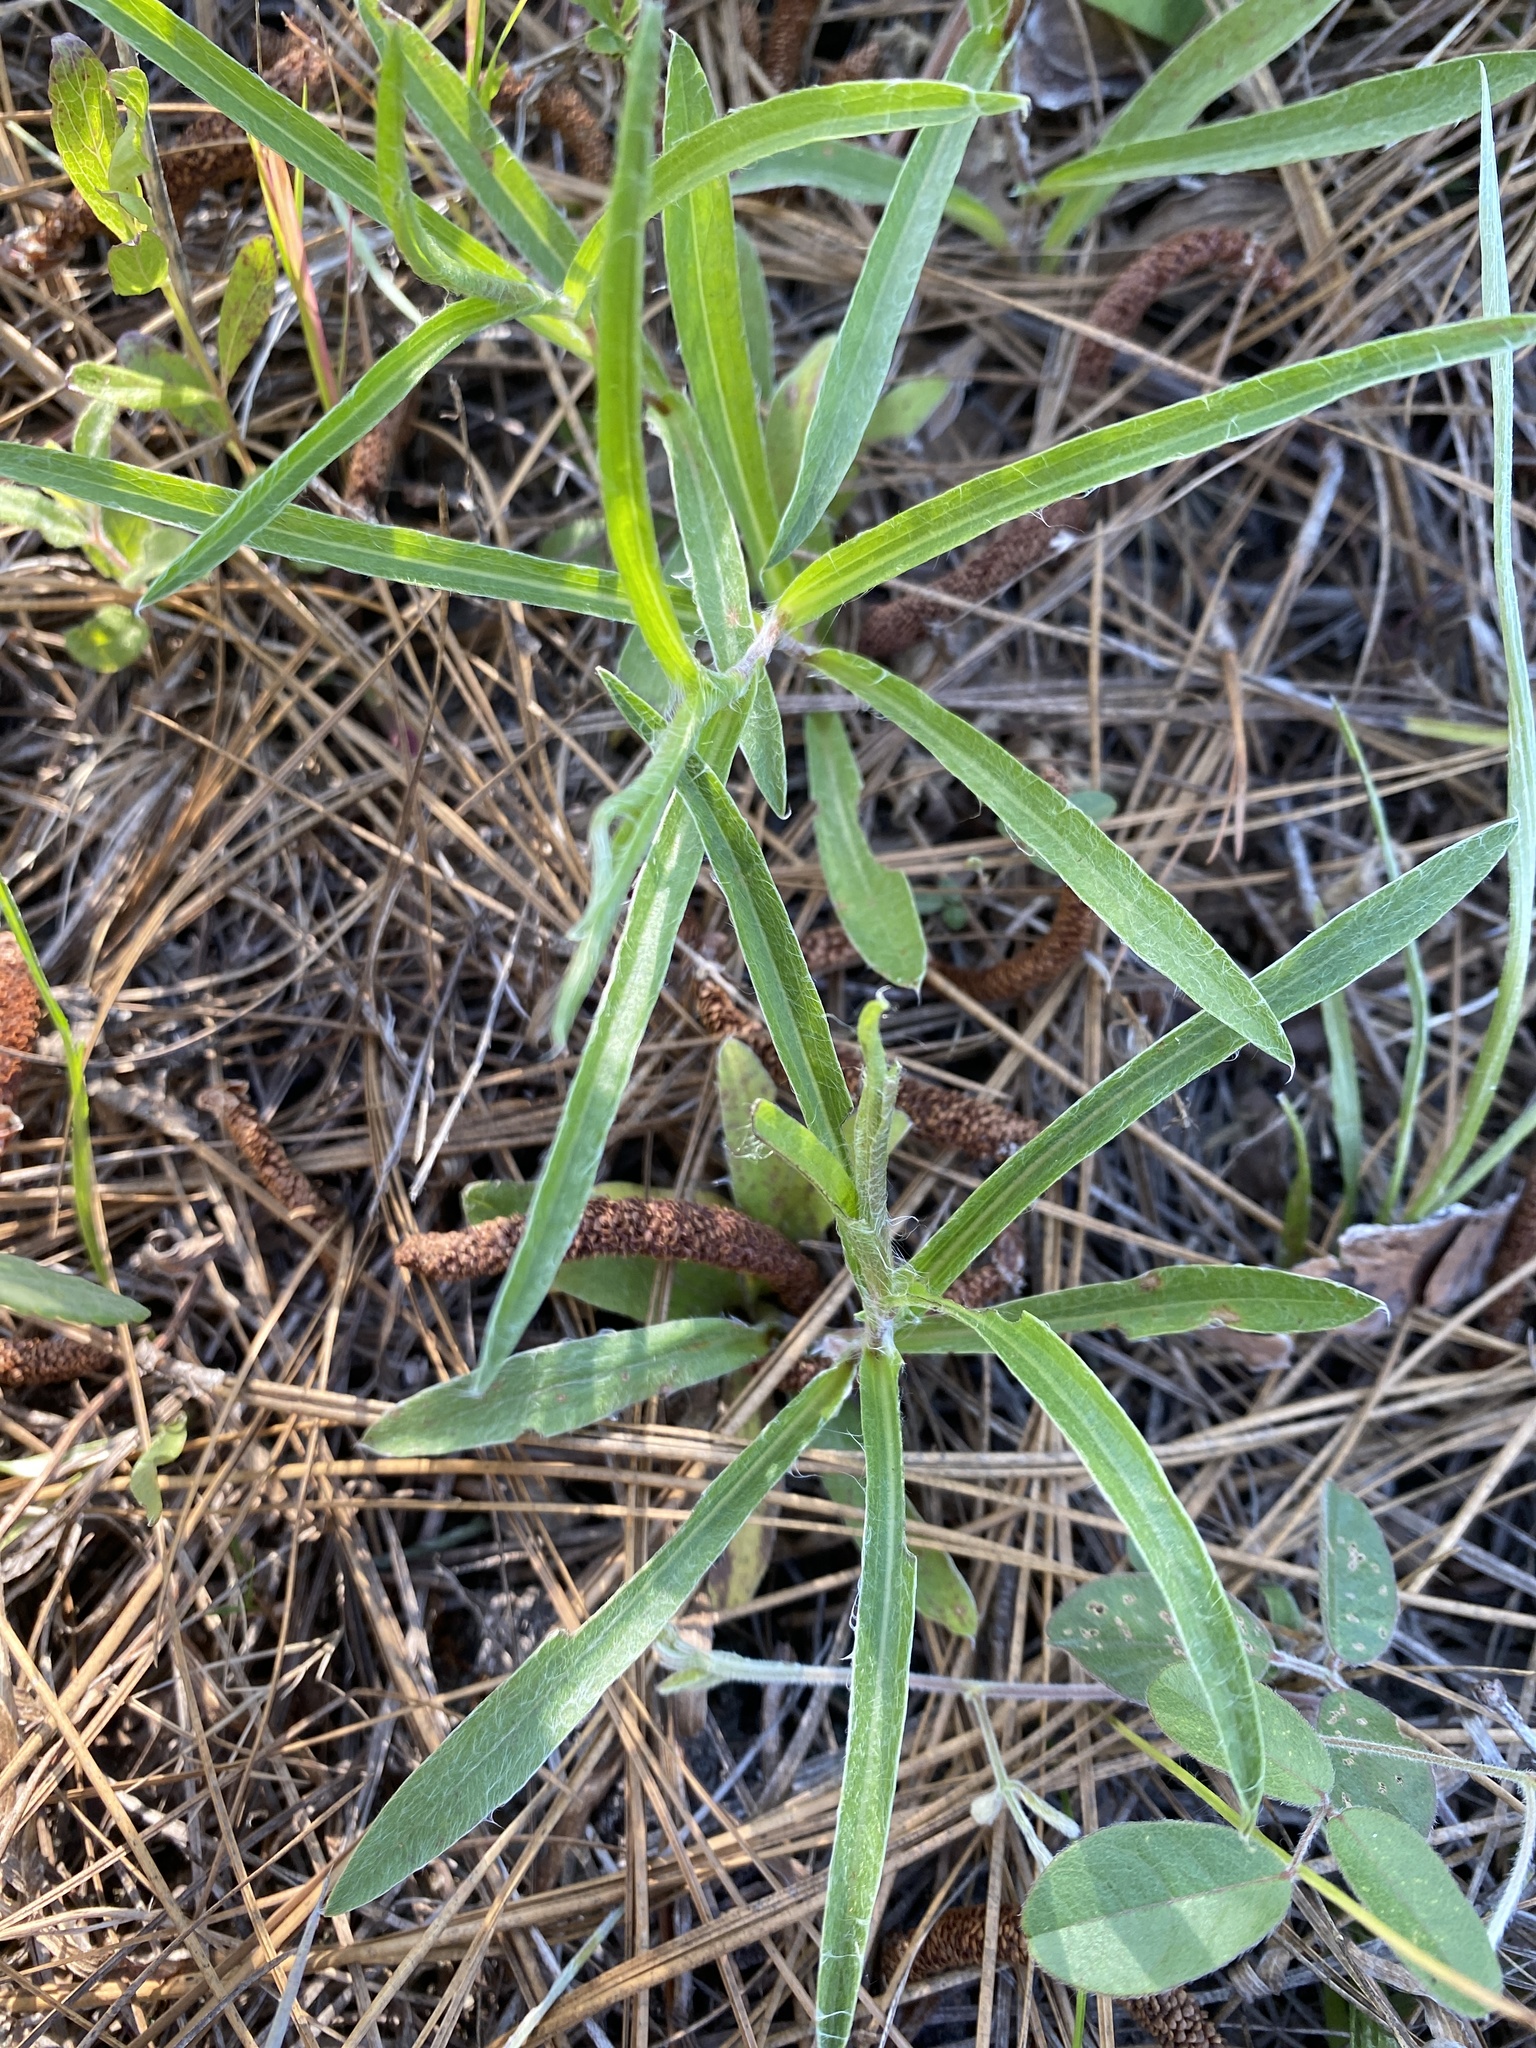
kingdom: Plantae
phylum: Tracheophyta
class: Magnoliopsida
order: Asterales
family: Asteraceae
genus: Pityopsis
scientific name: Pityopsis flexuosa
